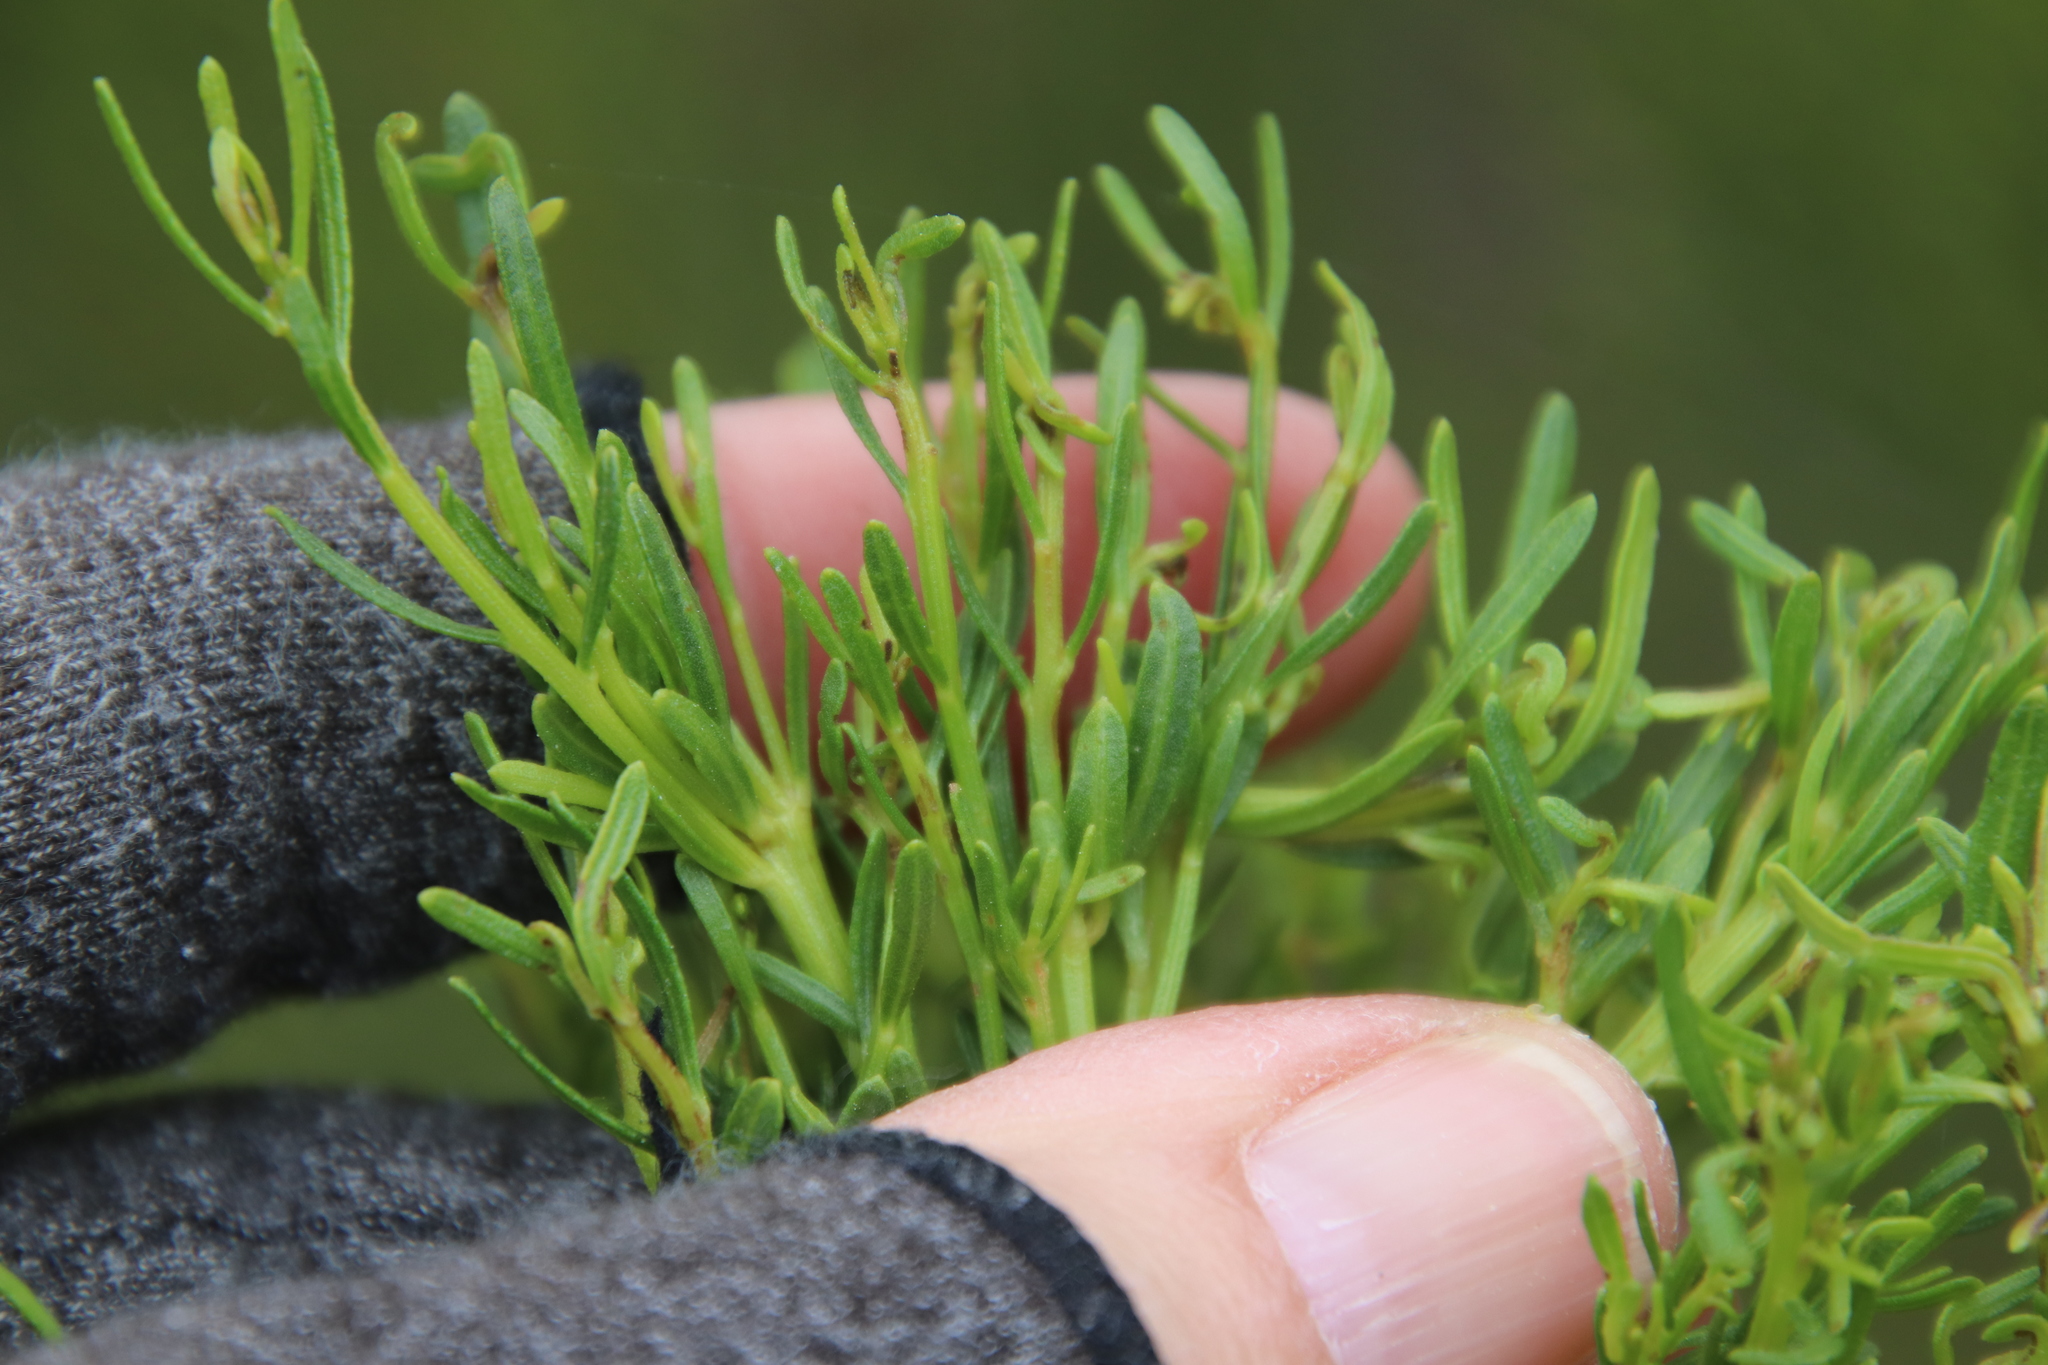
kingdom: Plantae
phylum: Tracheophyta
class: Magnoliopsida
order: Asterales
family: Asteraceae
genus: Baccharis
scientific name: Baccharis sarothroides
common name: Desert-broom
